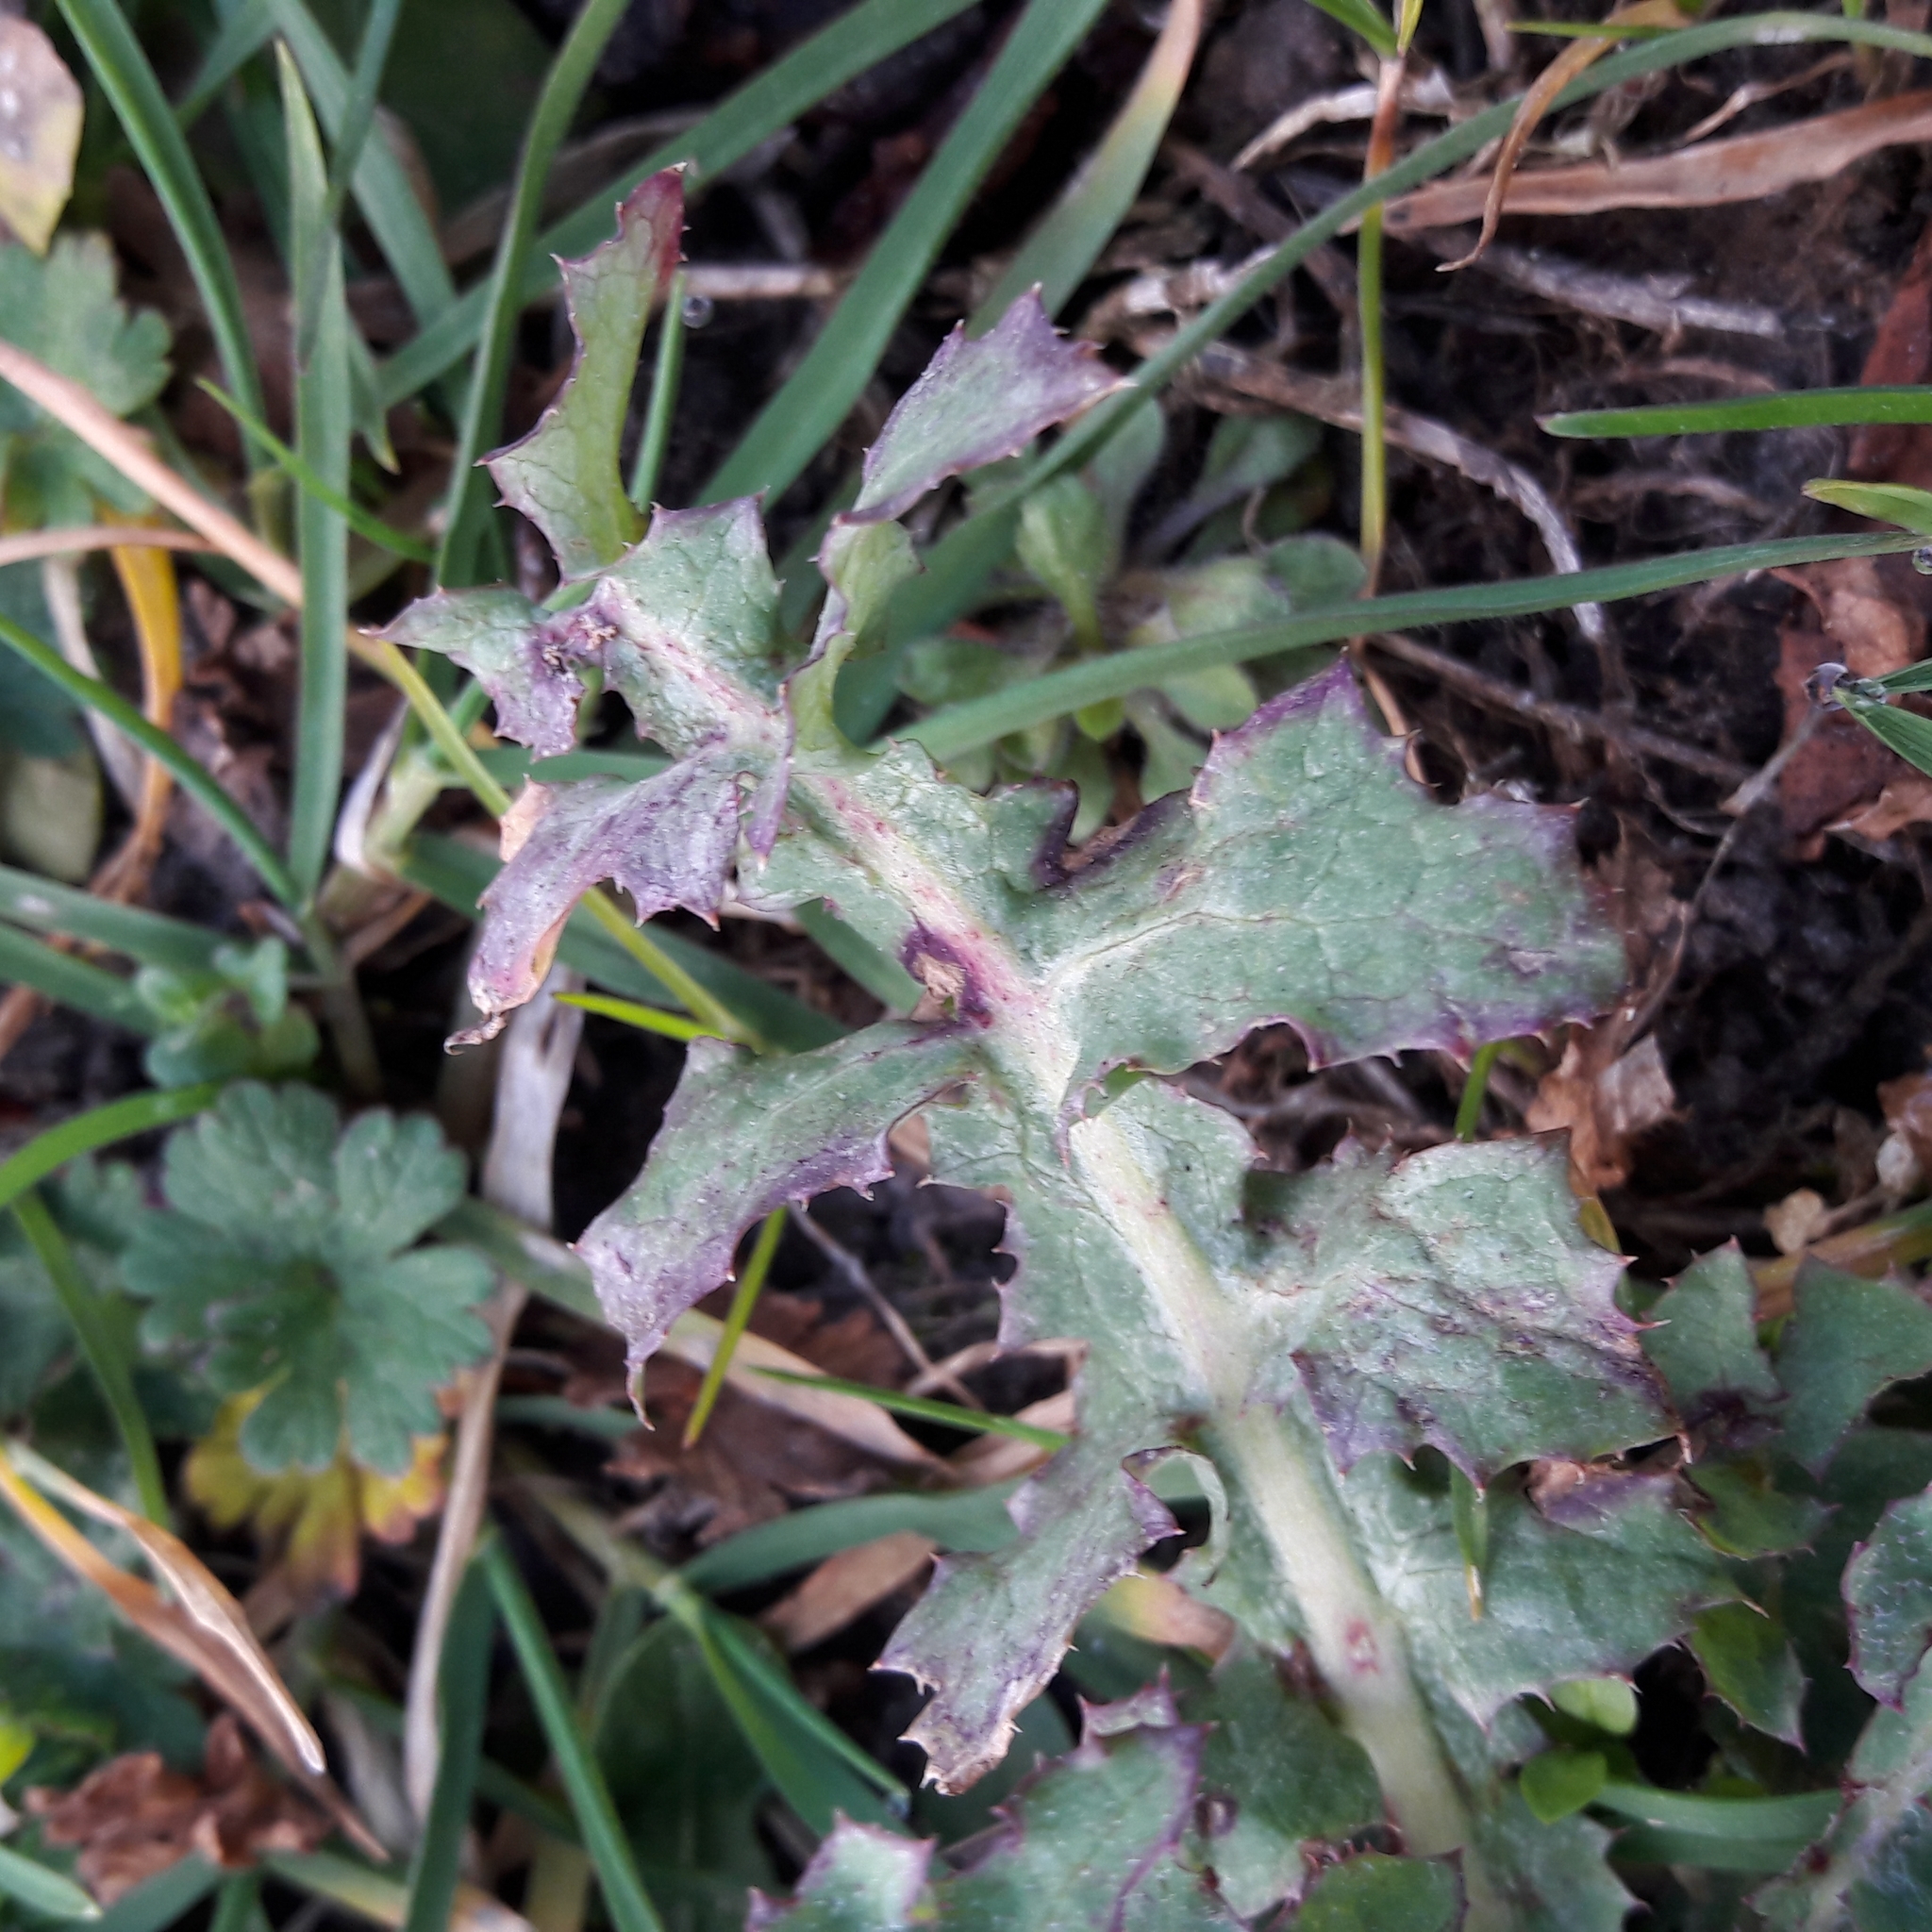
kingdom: Plantae
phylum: Tracheophyta
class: Magnoliopsida
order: Asterales
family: Asteraceae
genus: Sonchus
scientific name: Sonchus oleraceus
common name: Common sowthistle
